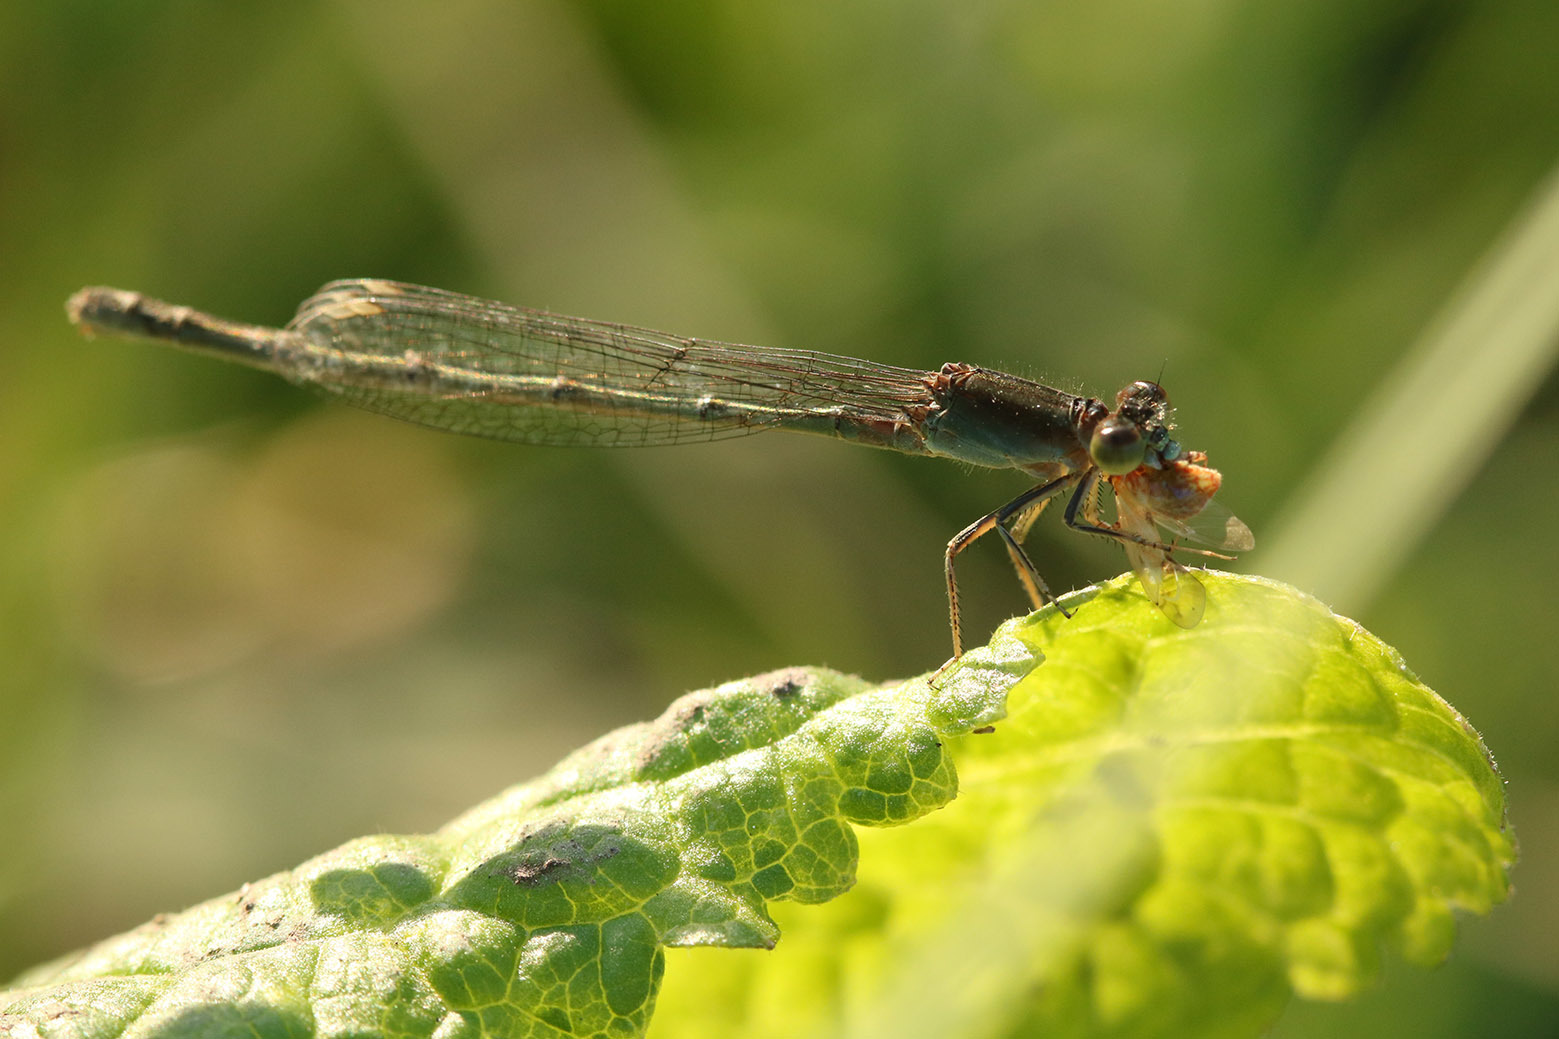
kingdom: Animalia
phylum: Arthropoda
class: Insecta
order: Odonata
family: Coenagrionidae
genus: Ischnura
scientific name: Ischnura fluviatilis
